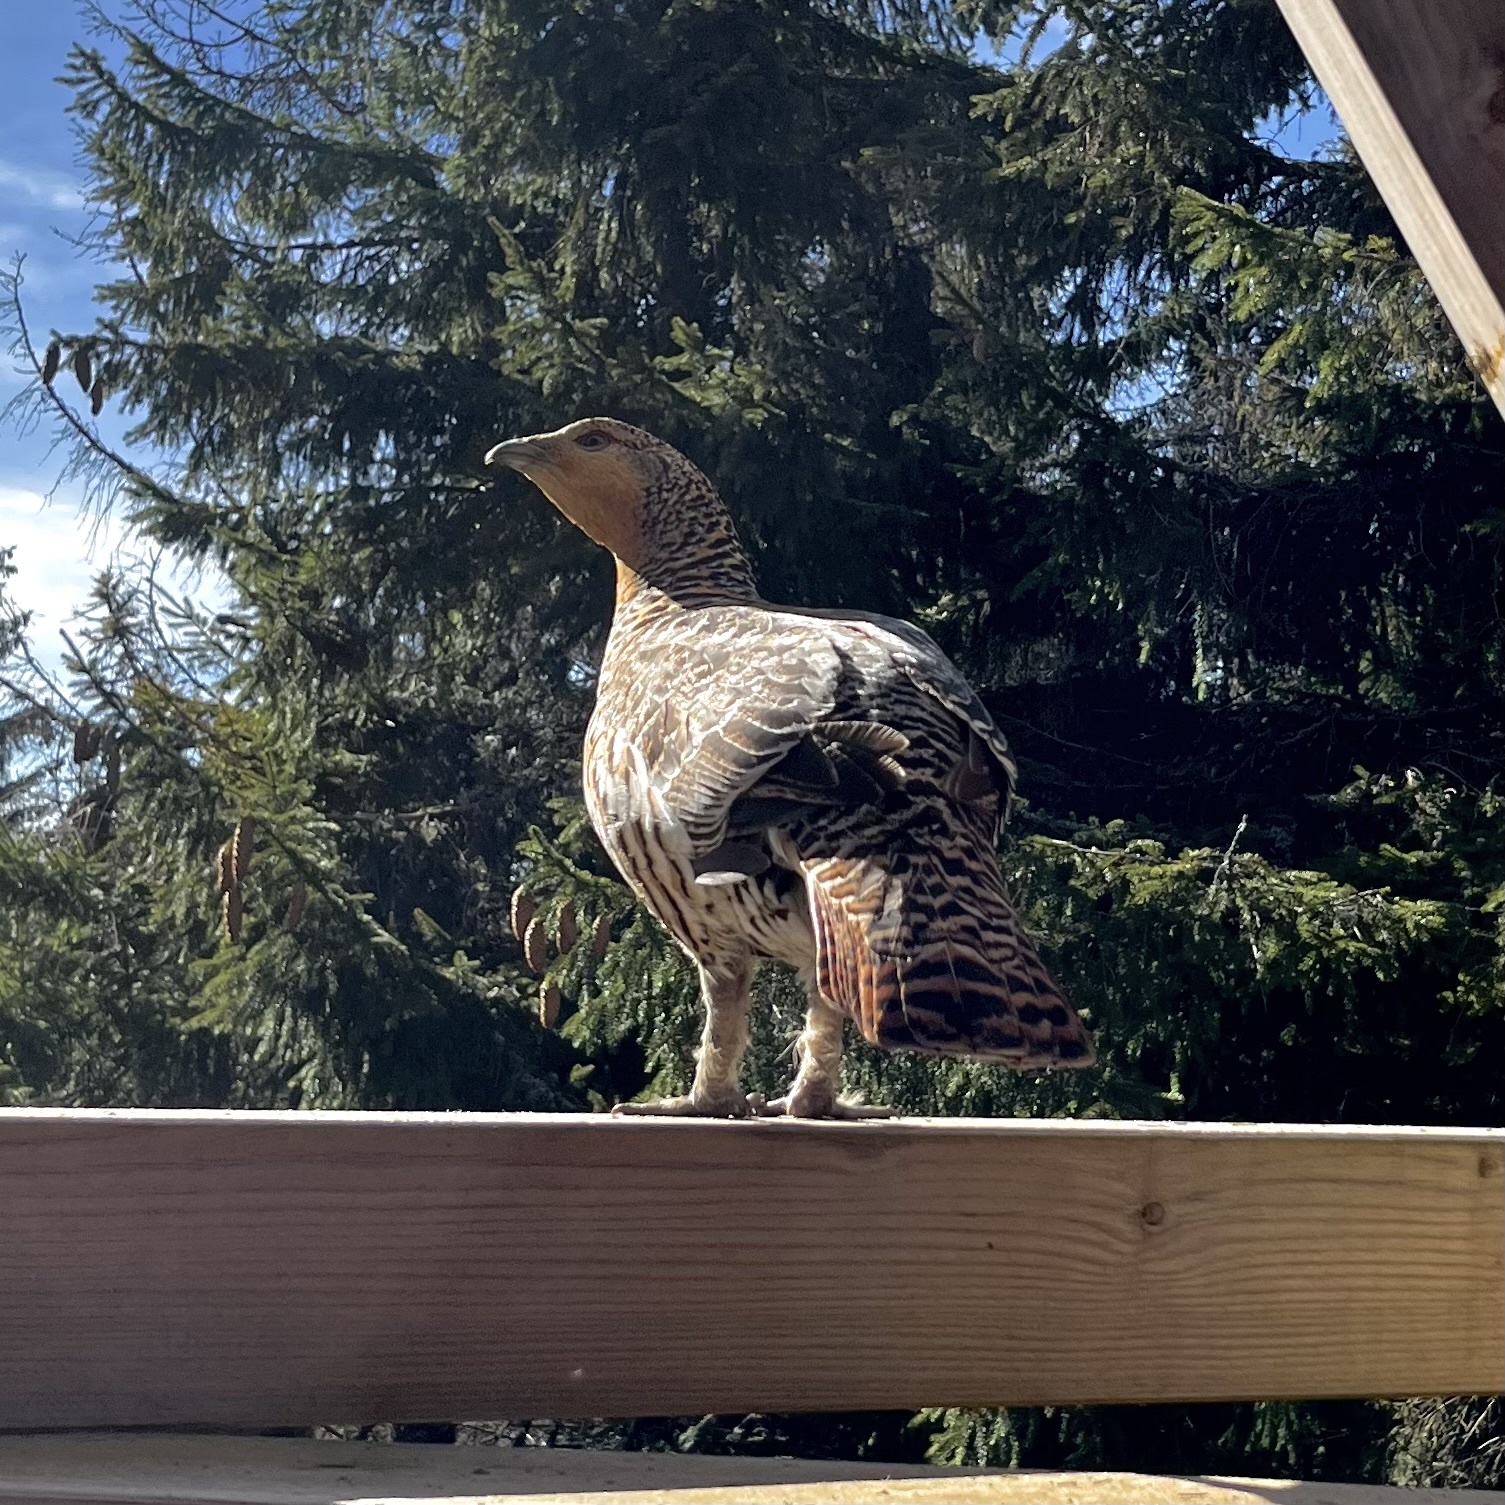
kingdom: Animalia
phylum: Chordata
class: Aves
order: Galliformes
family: Phasianidae
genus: Tetrao
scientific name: Tetrao urogallus
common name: Western capercaillie
